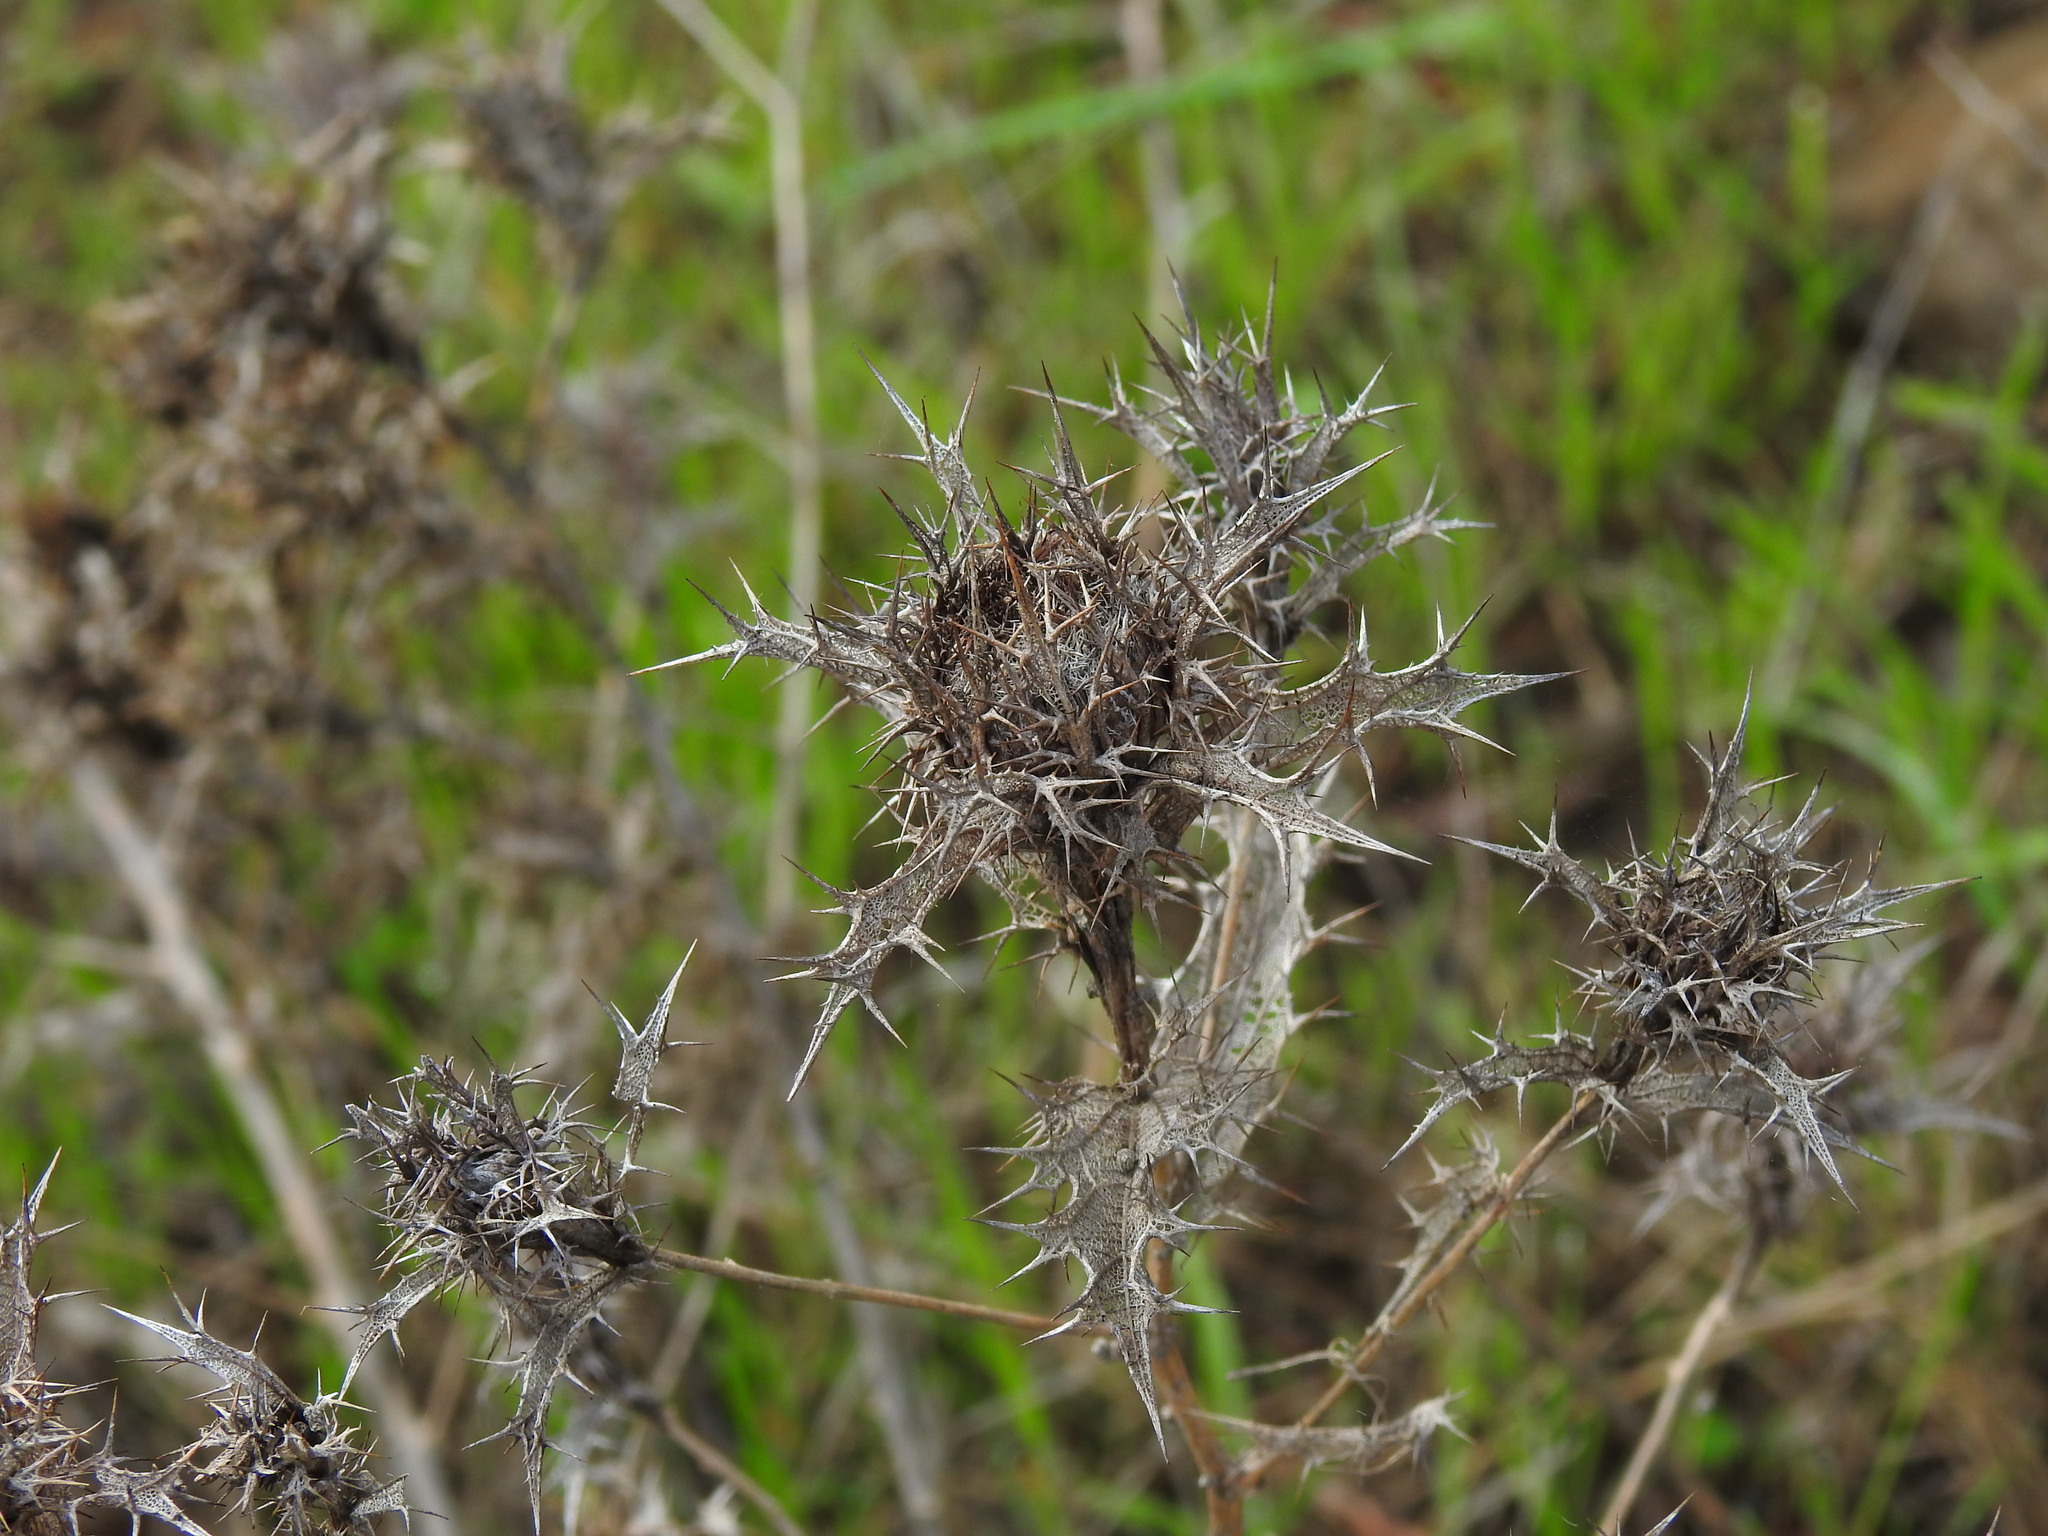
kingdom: Plantae
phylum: Tracheophyta
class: Magnoliopsida
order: Asterales
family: Asteraceae
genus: Carlina
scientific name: Carlina hispanica
